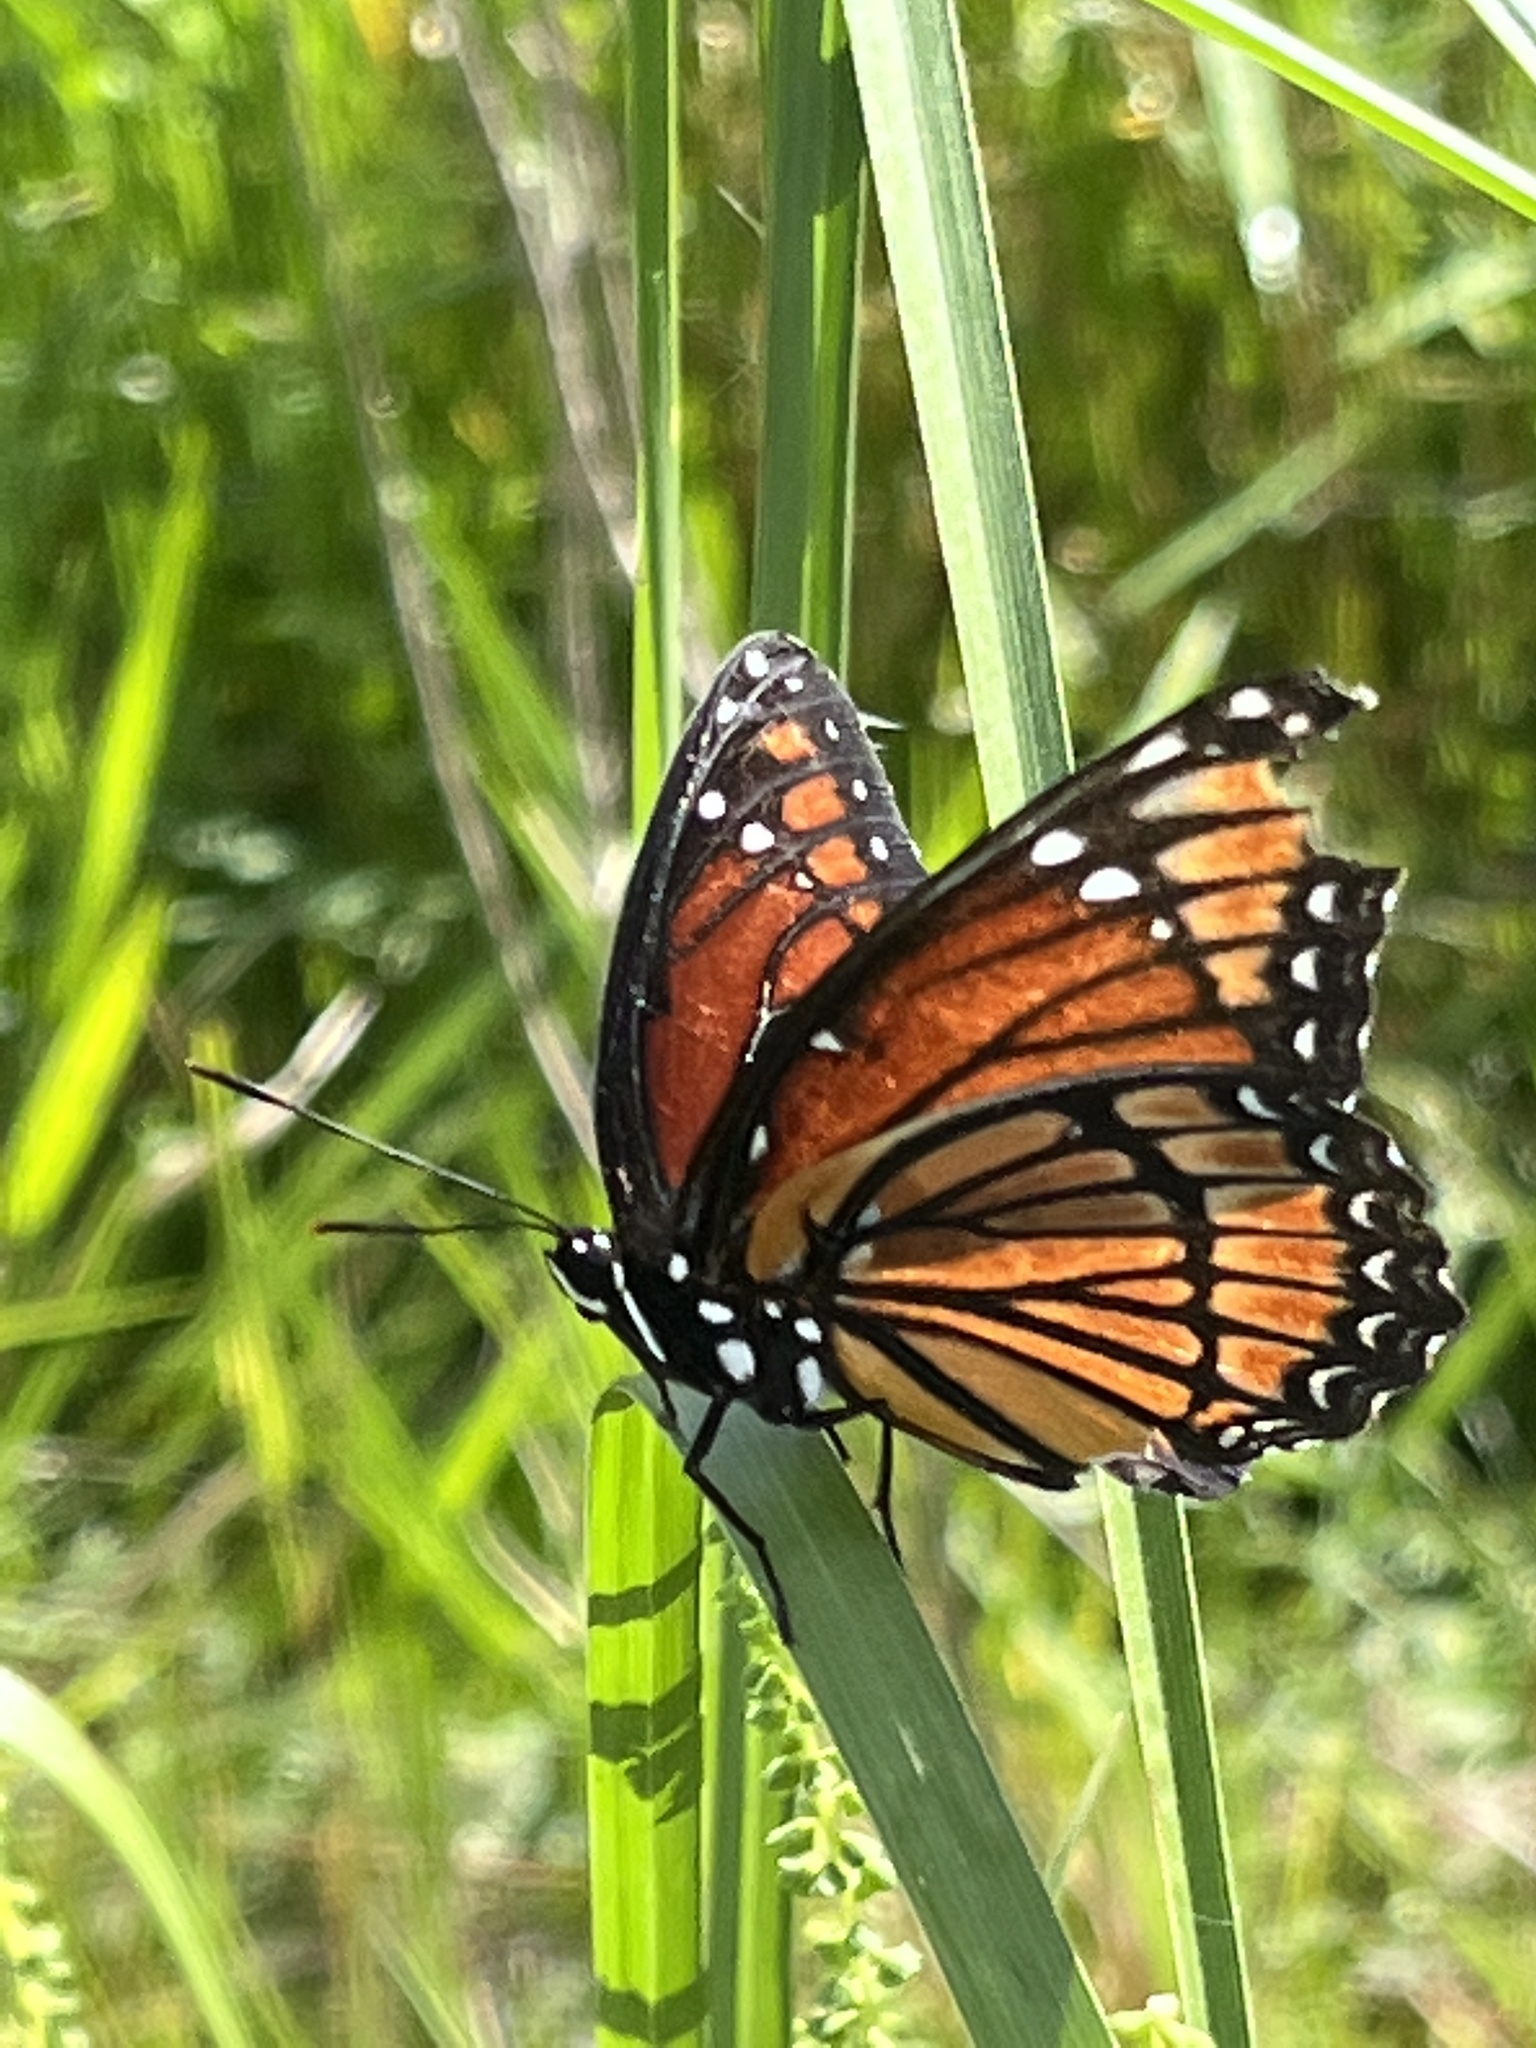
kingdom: Animalia
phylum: Arthropoda
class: Insecta
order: Lepidoptera
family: Nymphalidae
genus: Limenitis
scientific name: Limenitis archippus
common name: Viceroy
